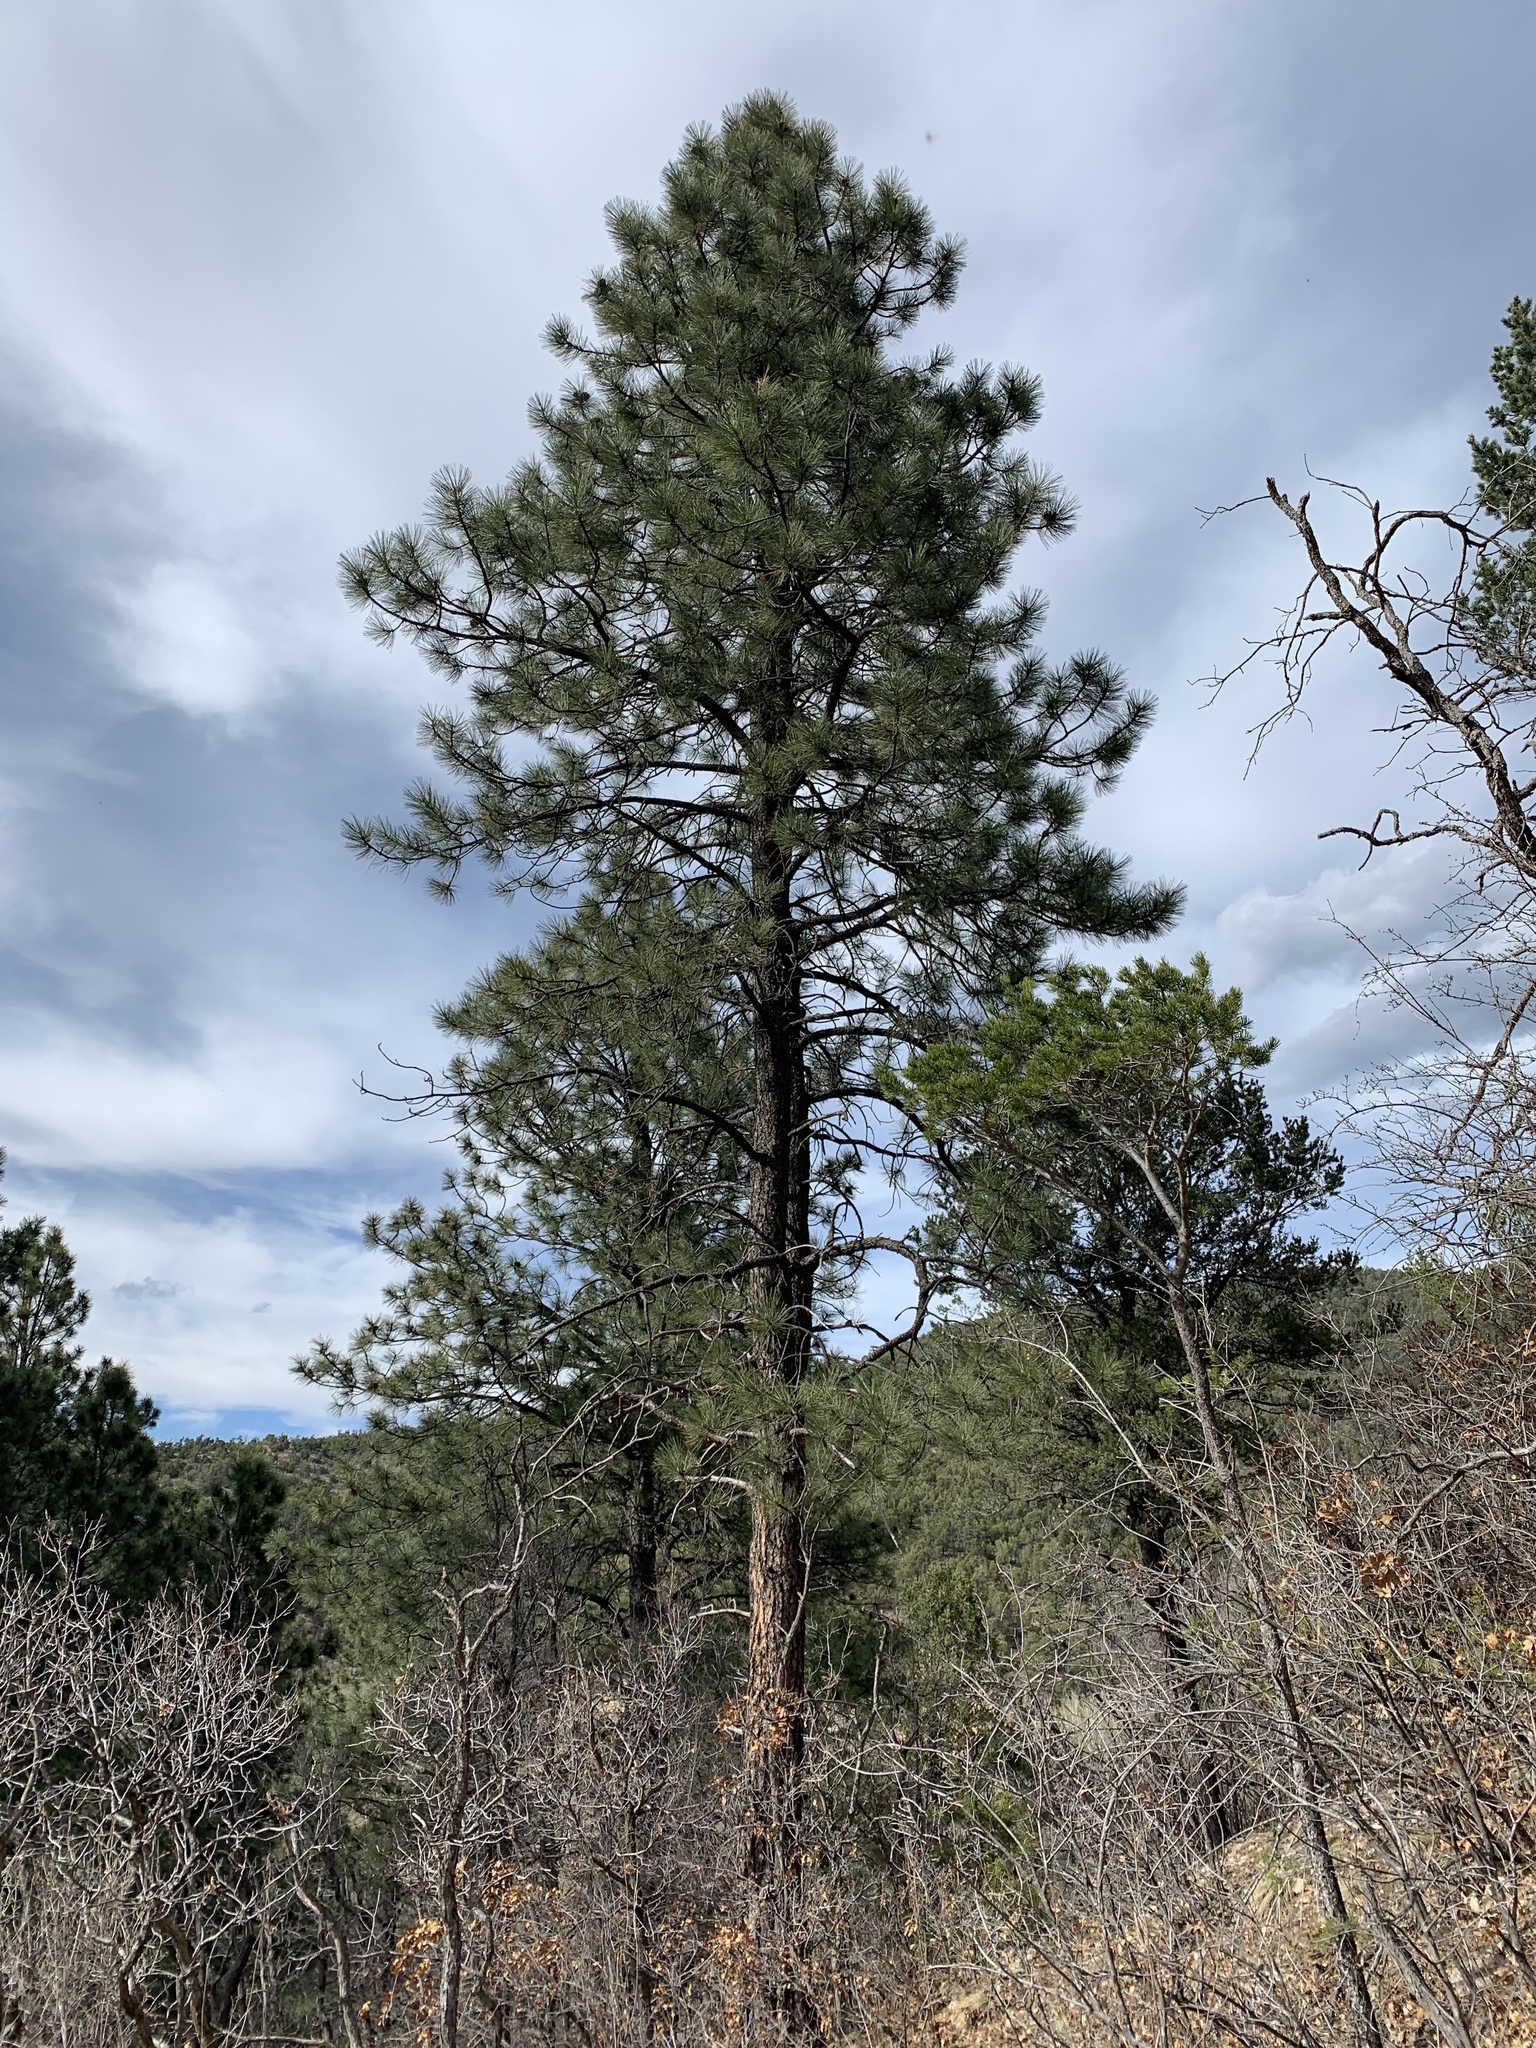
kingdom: Plantae
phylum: Tracheophyta
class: Pinopsida
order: Pinales
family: Pinaceae
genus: Pinus
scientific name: Pinus ponderosa
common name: Western yellow-pine
